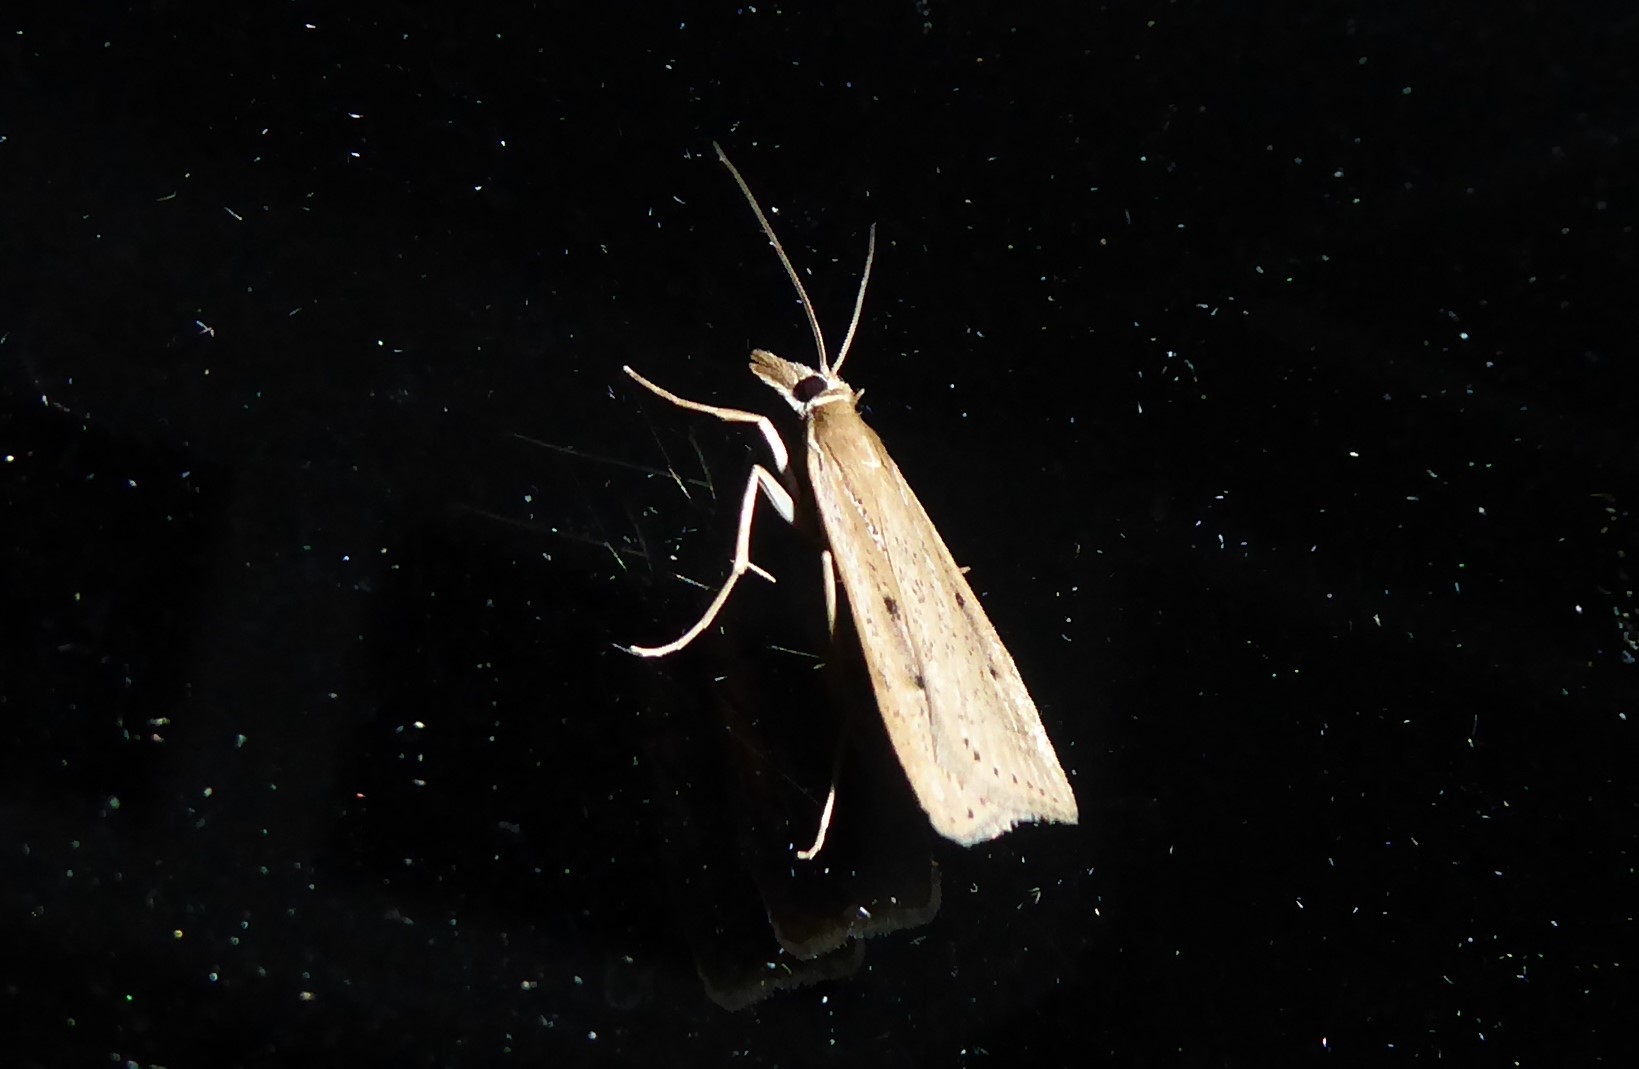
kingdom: Animalia
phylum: Arthropoda
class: Insecta
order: Lepidoptera
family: Crambidae
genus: Eudonia
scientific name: Eudonia sabulosella
